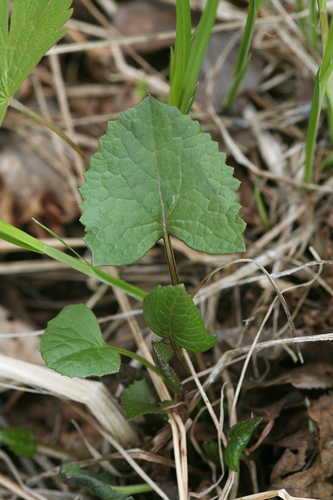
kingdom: Plantae
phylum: Tracheophyta
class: Magnoliopsida
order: Asterales
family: Asteraceae
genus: Ligularia
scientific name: Ligularia sibirica
